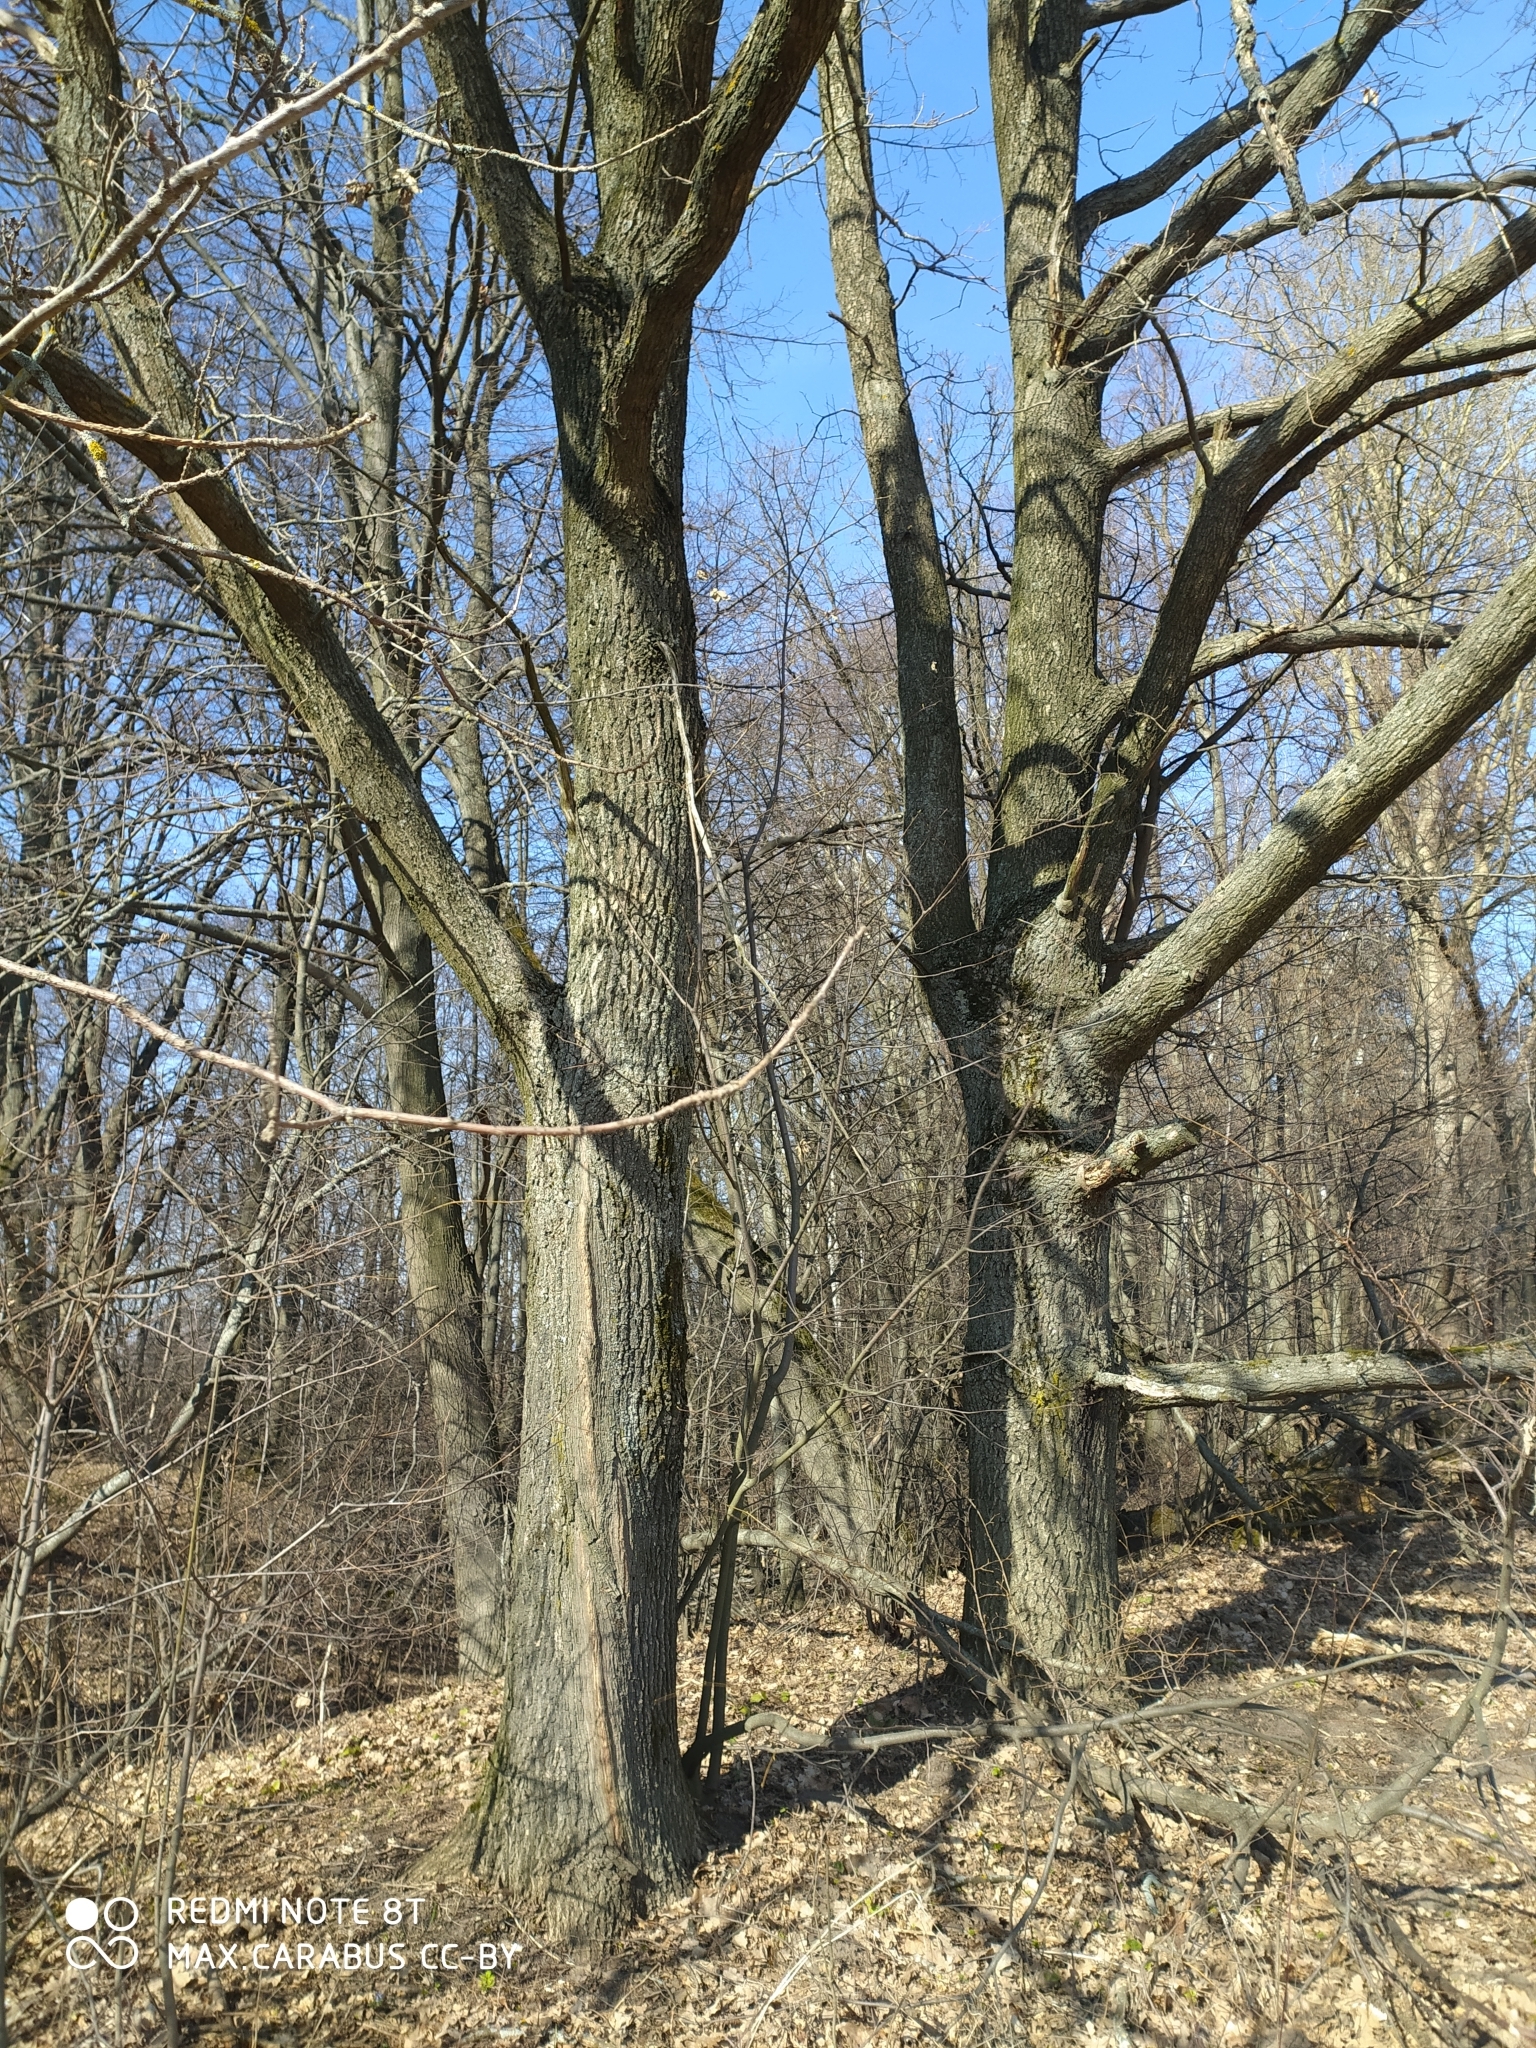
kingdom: Plantae
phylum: Tracheophyta
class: Magnoliopsida
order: Fagales
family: Fagaceae
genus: Quercus
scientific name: Quercus robur
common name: Pedunculate oak
